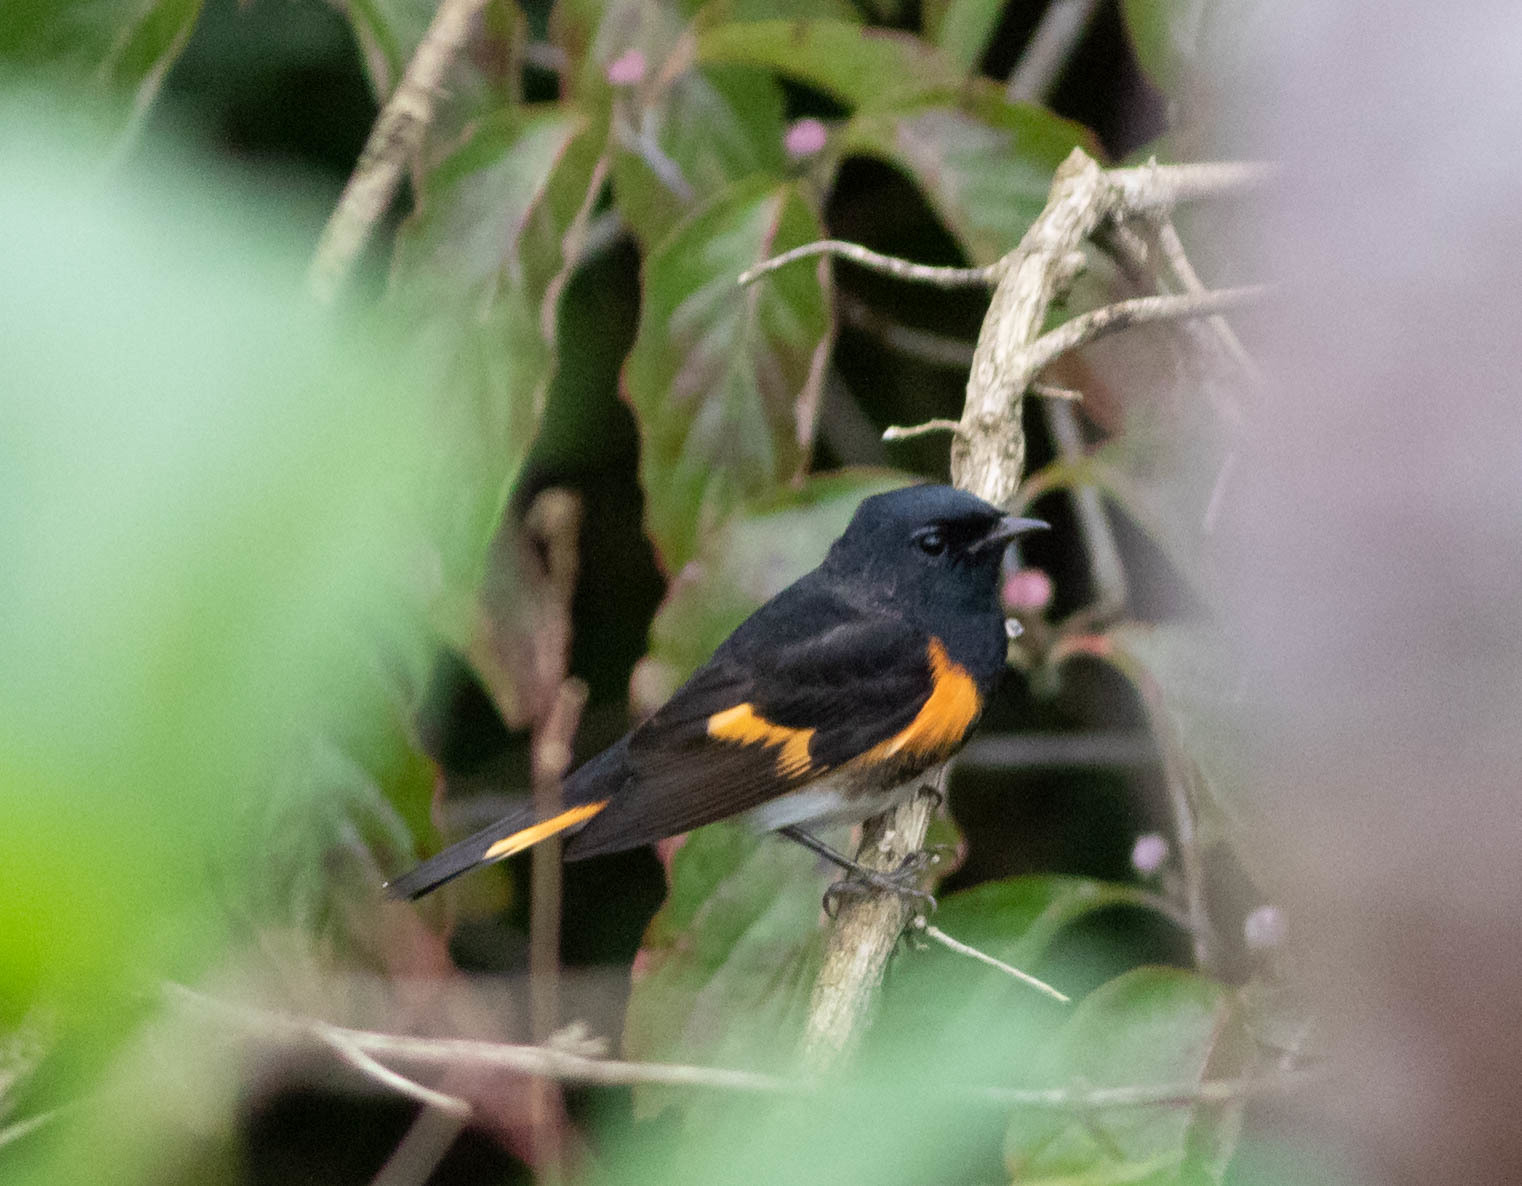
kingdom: Animalia
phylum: Chordata
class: Aves
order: Passeriformes
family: Parulidae
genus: Setophaga
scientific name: Setophaga ruticilla
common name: American redstart
